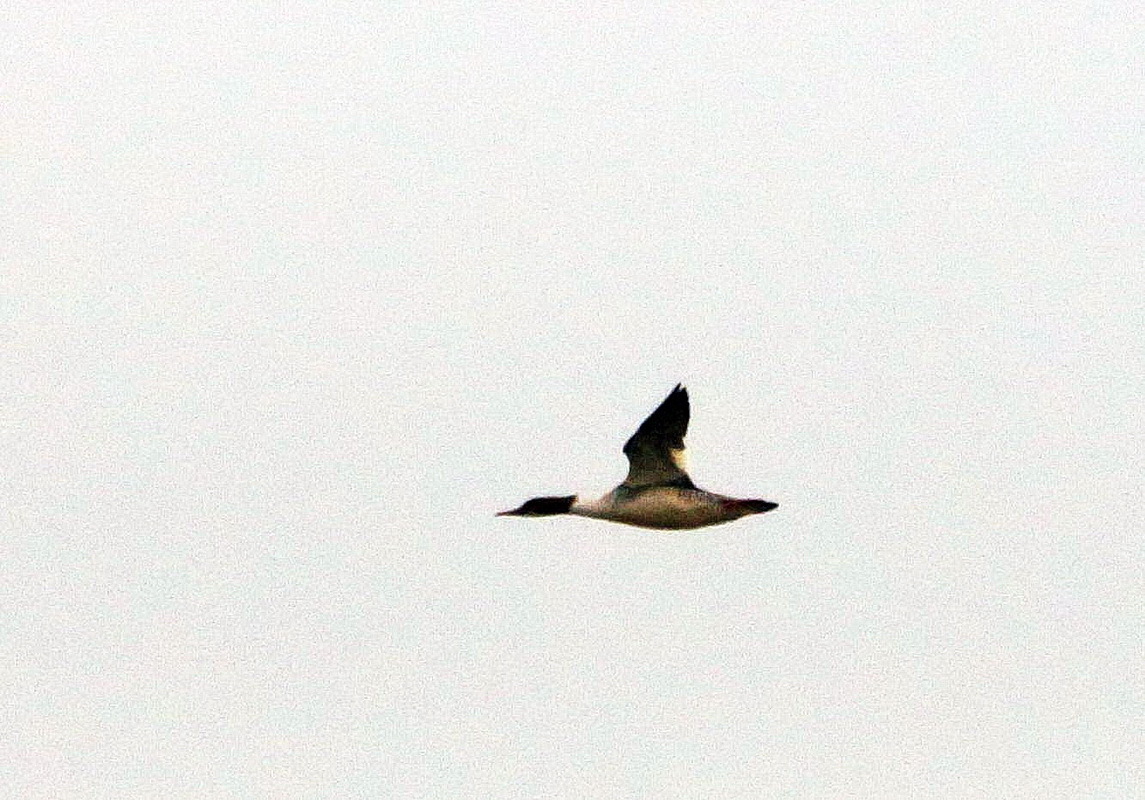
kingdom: Animalia
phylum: Chordata
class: Aves
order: Anseriformes
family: Anatidae
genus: Mergus
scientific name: Mergus merganser
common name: Common merganser
